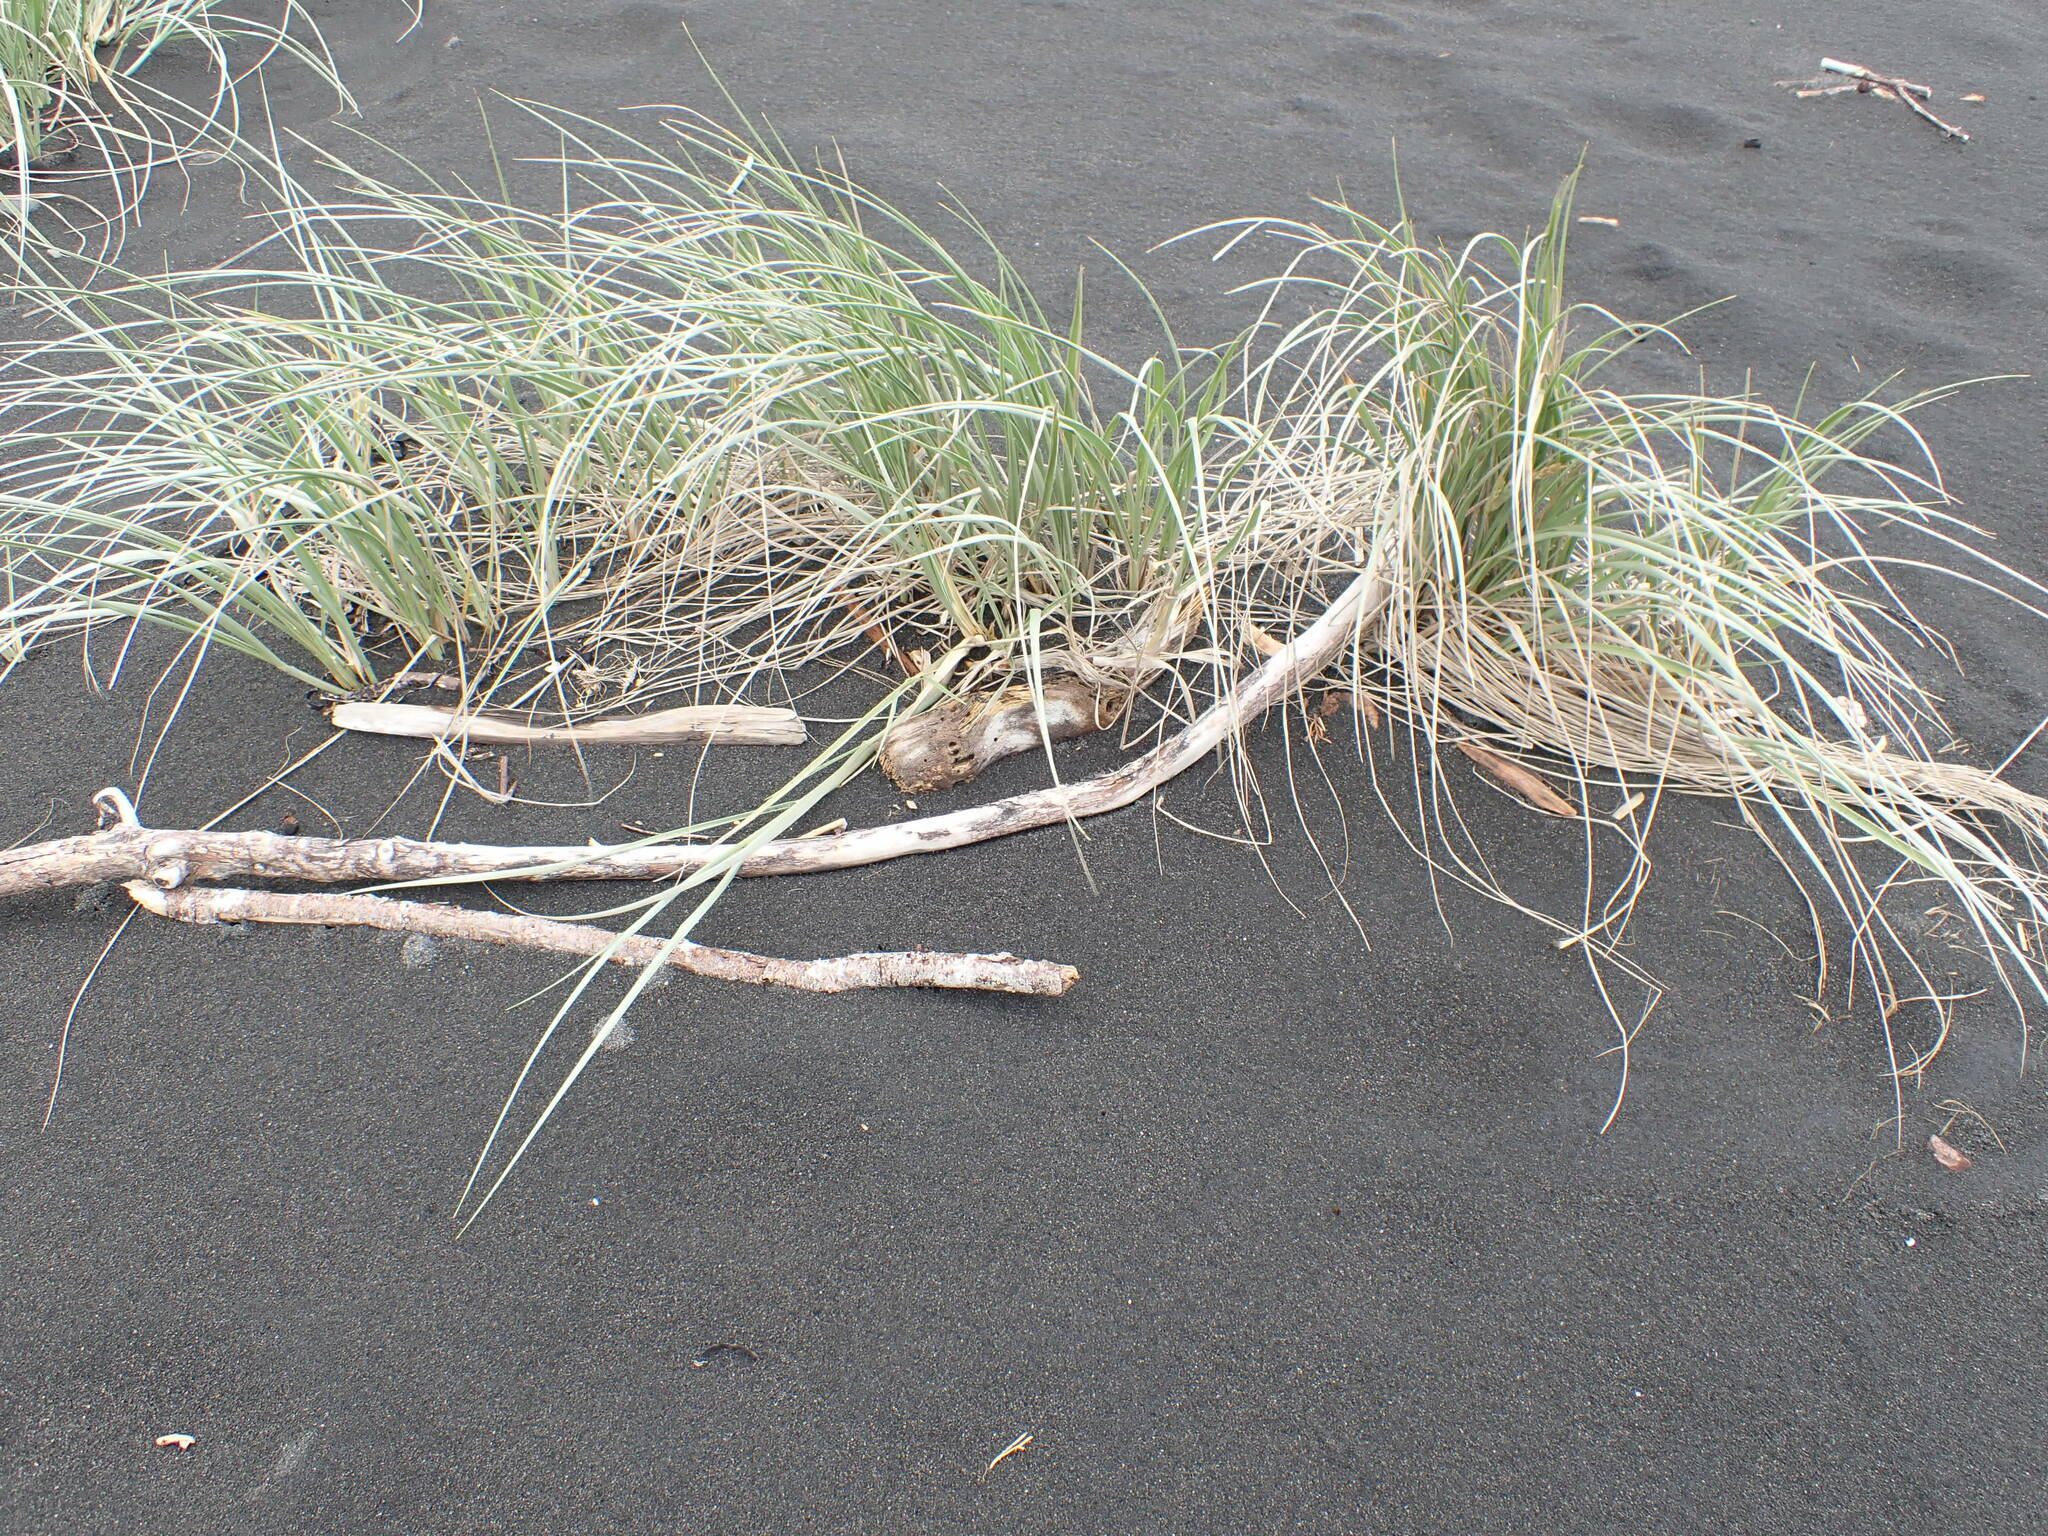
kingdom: Plantae
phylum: Tracheophyta
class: Liliopsida
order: Poales
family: Poaceae
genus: Spinifex
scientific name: Spinifex sericeus
